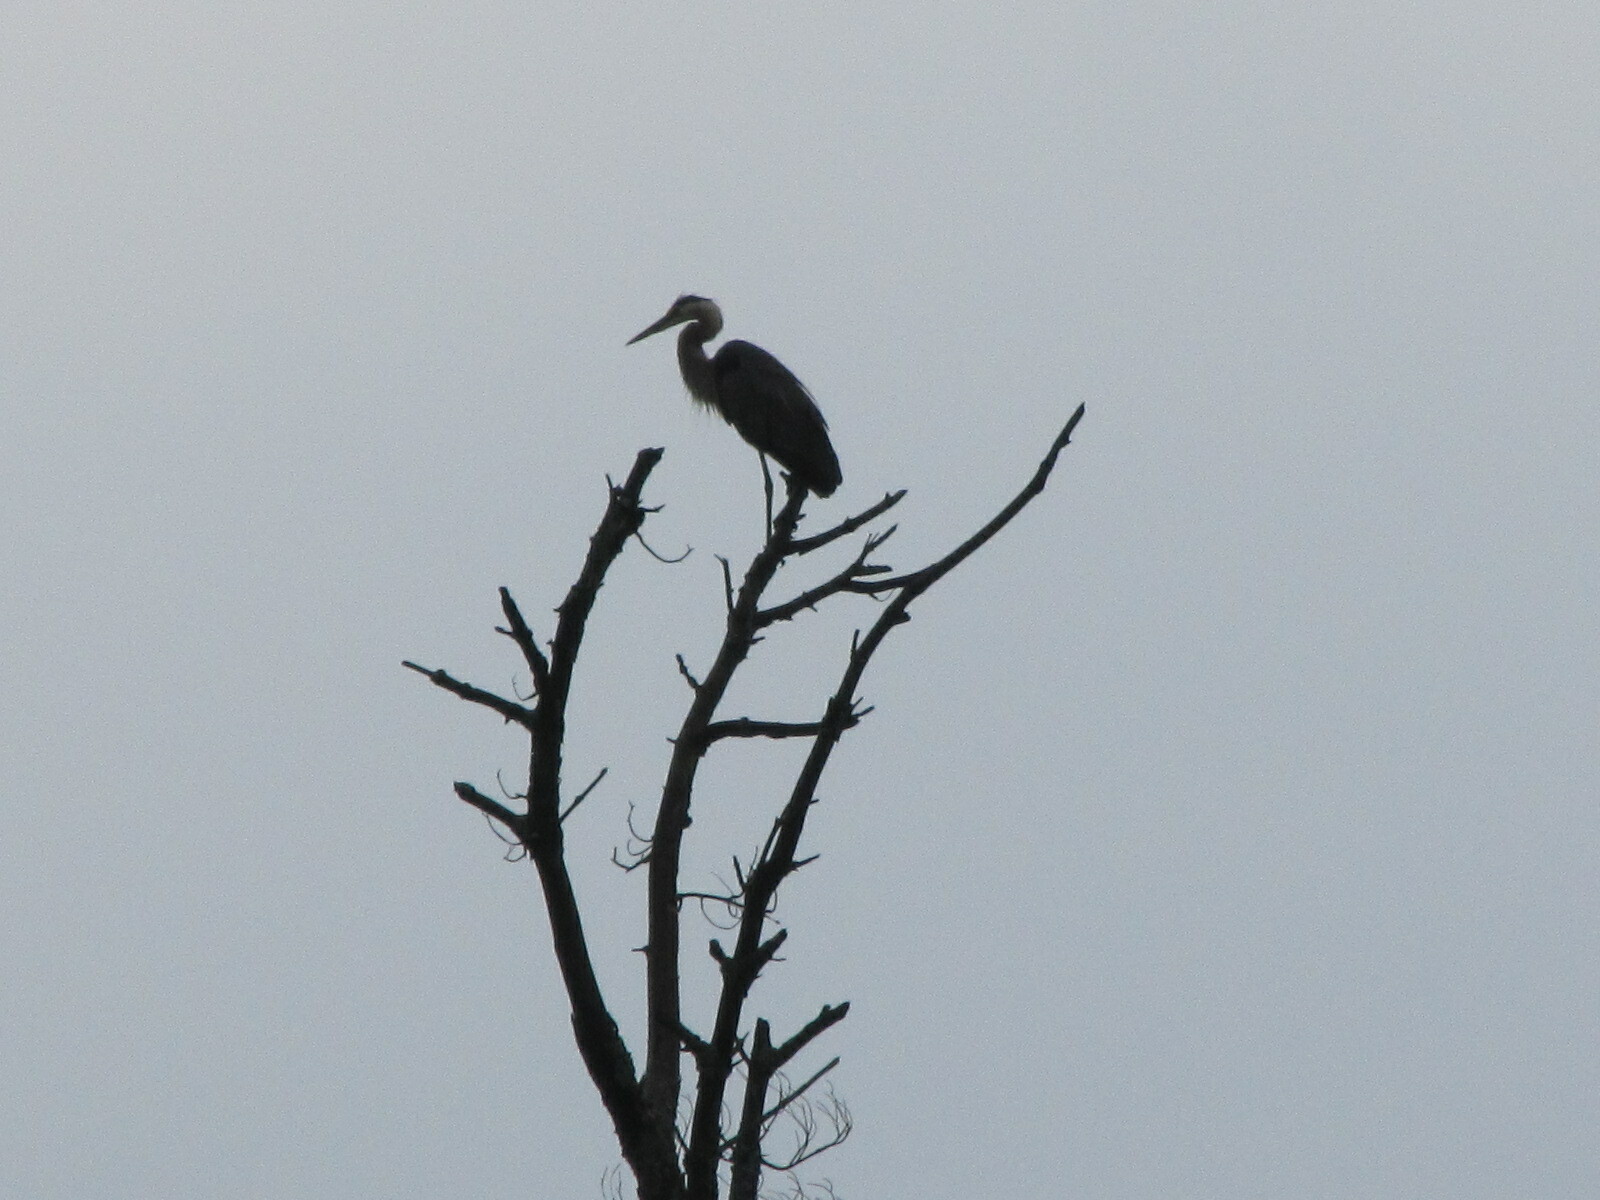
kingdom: Animalia
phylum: Chordata
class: Aves
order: Pelecaniformes
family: Ardeidae
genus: Ardea
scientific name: Ardea herodias
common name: Great blue heron
